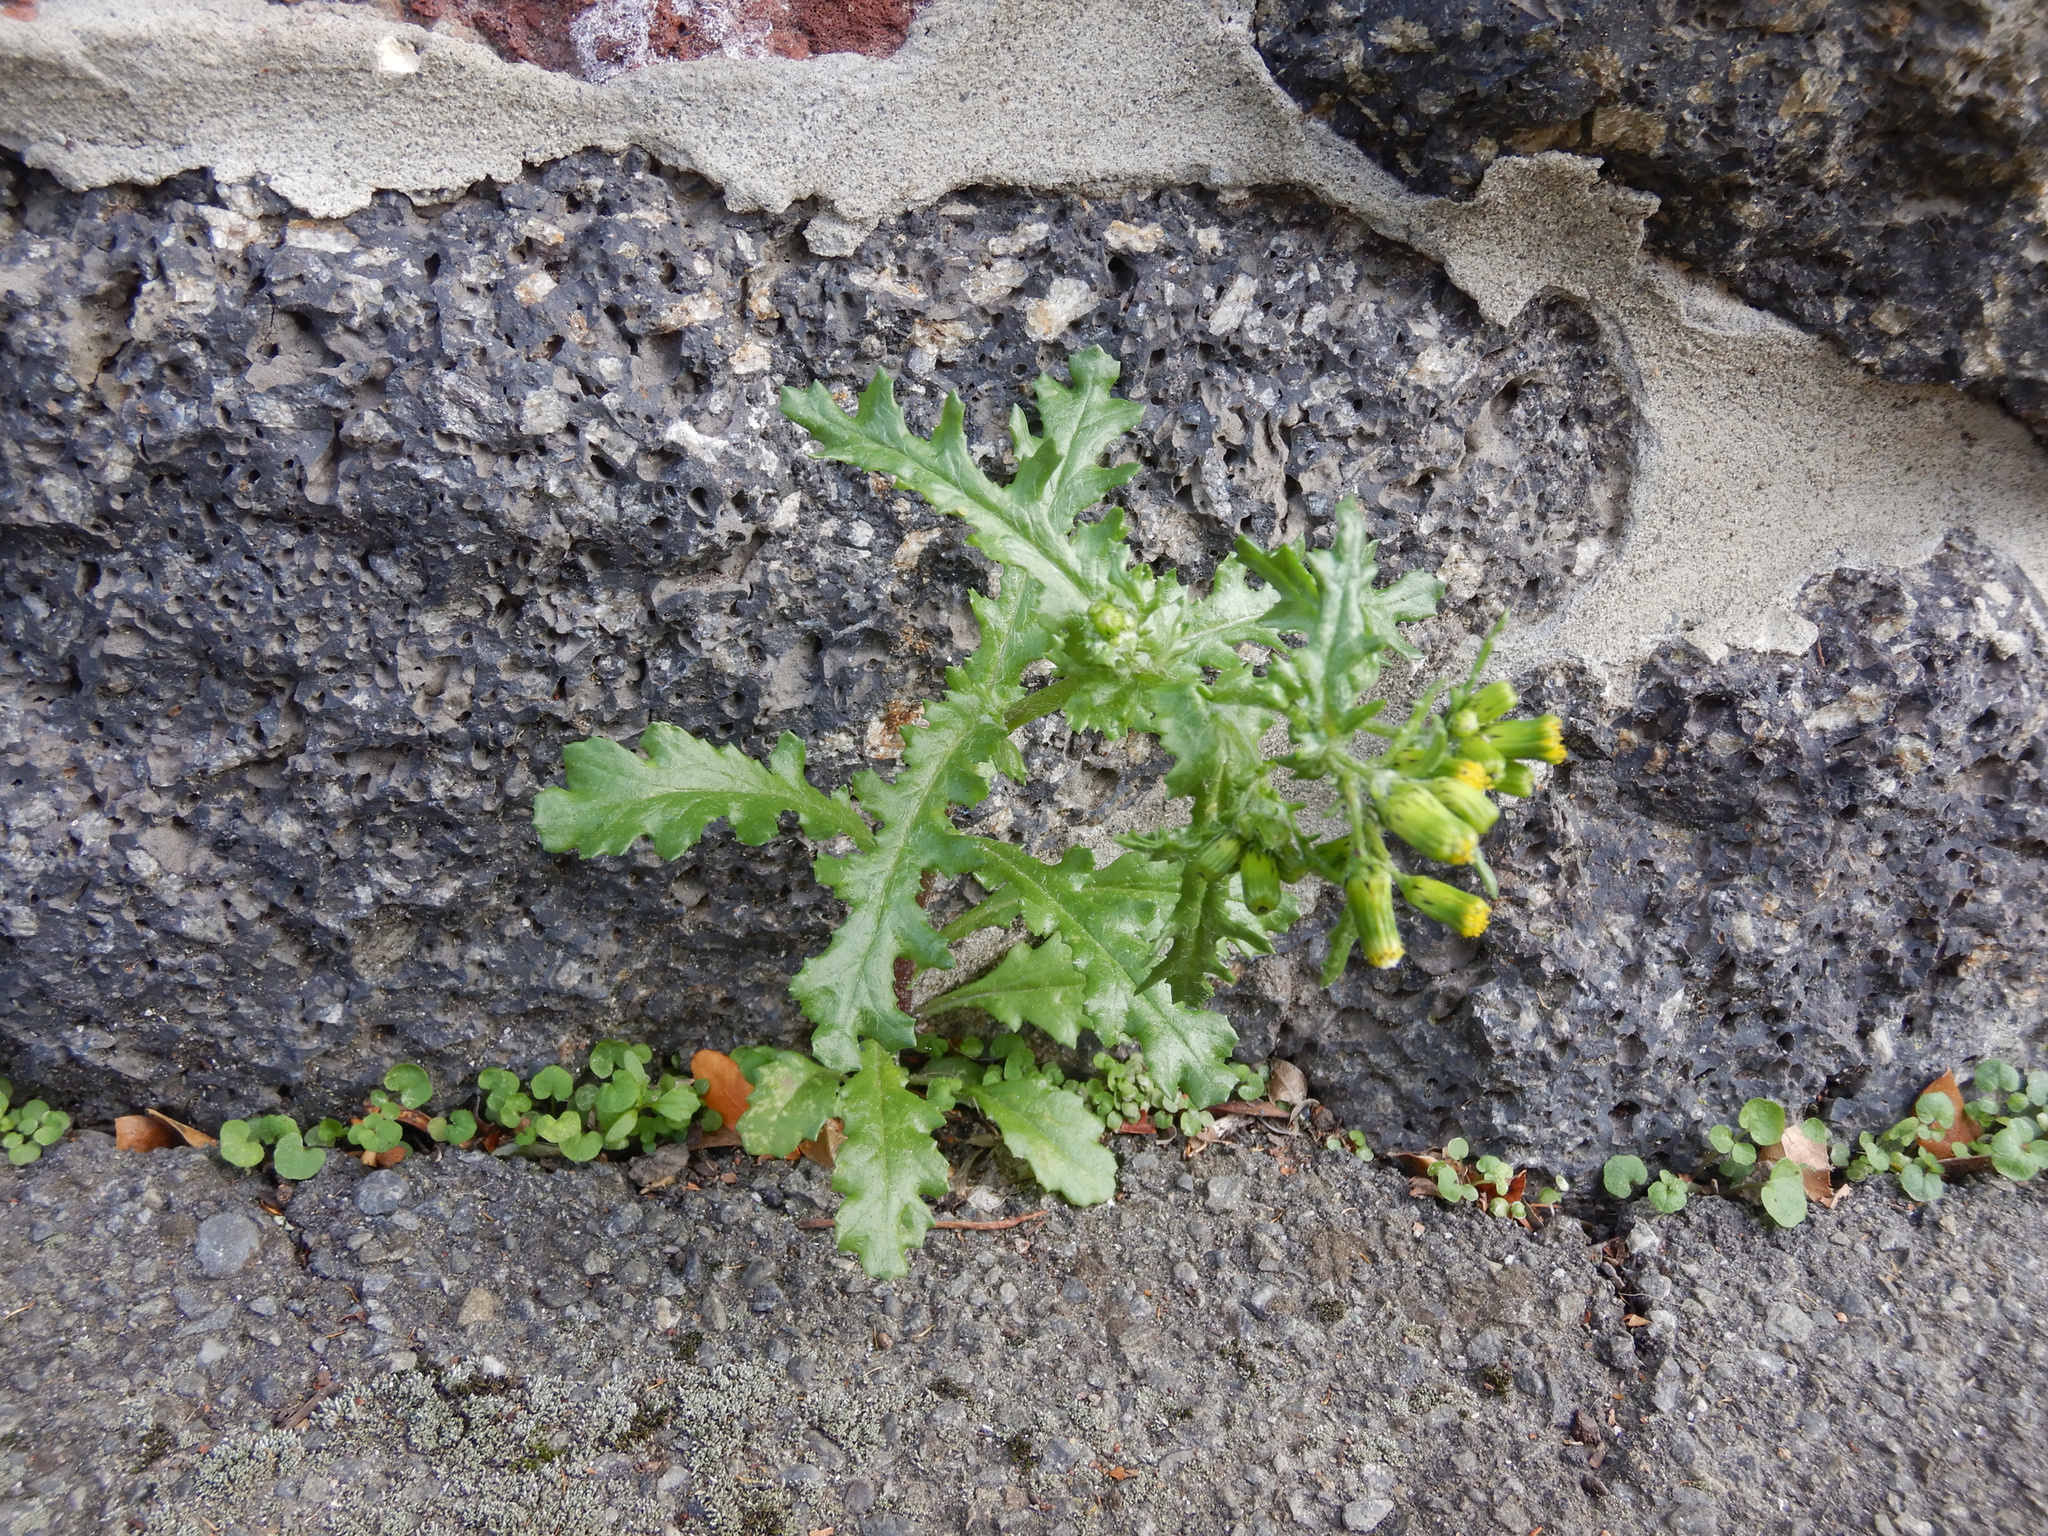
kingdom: Plantae
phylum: Tracheophyta
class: Magnoliopsida
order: Asterales
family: Asteraceae
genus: Senecio
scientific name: Senecio vulgaris
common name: Old-man-in-the-spring
